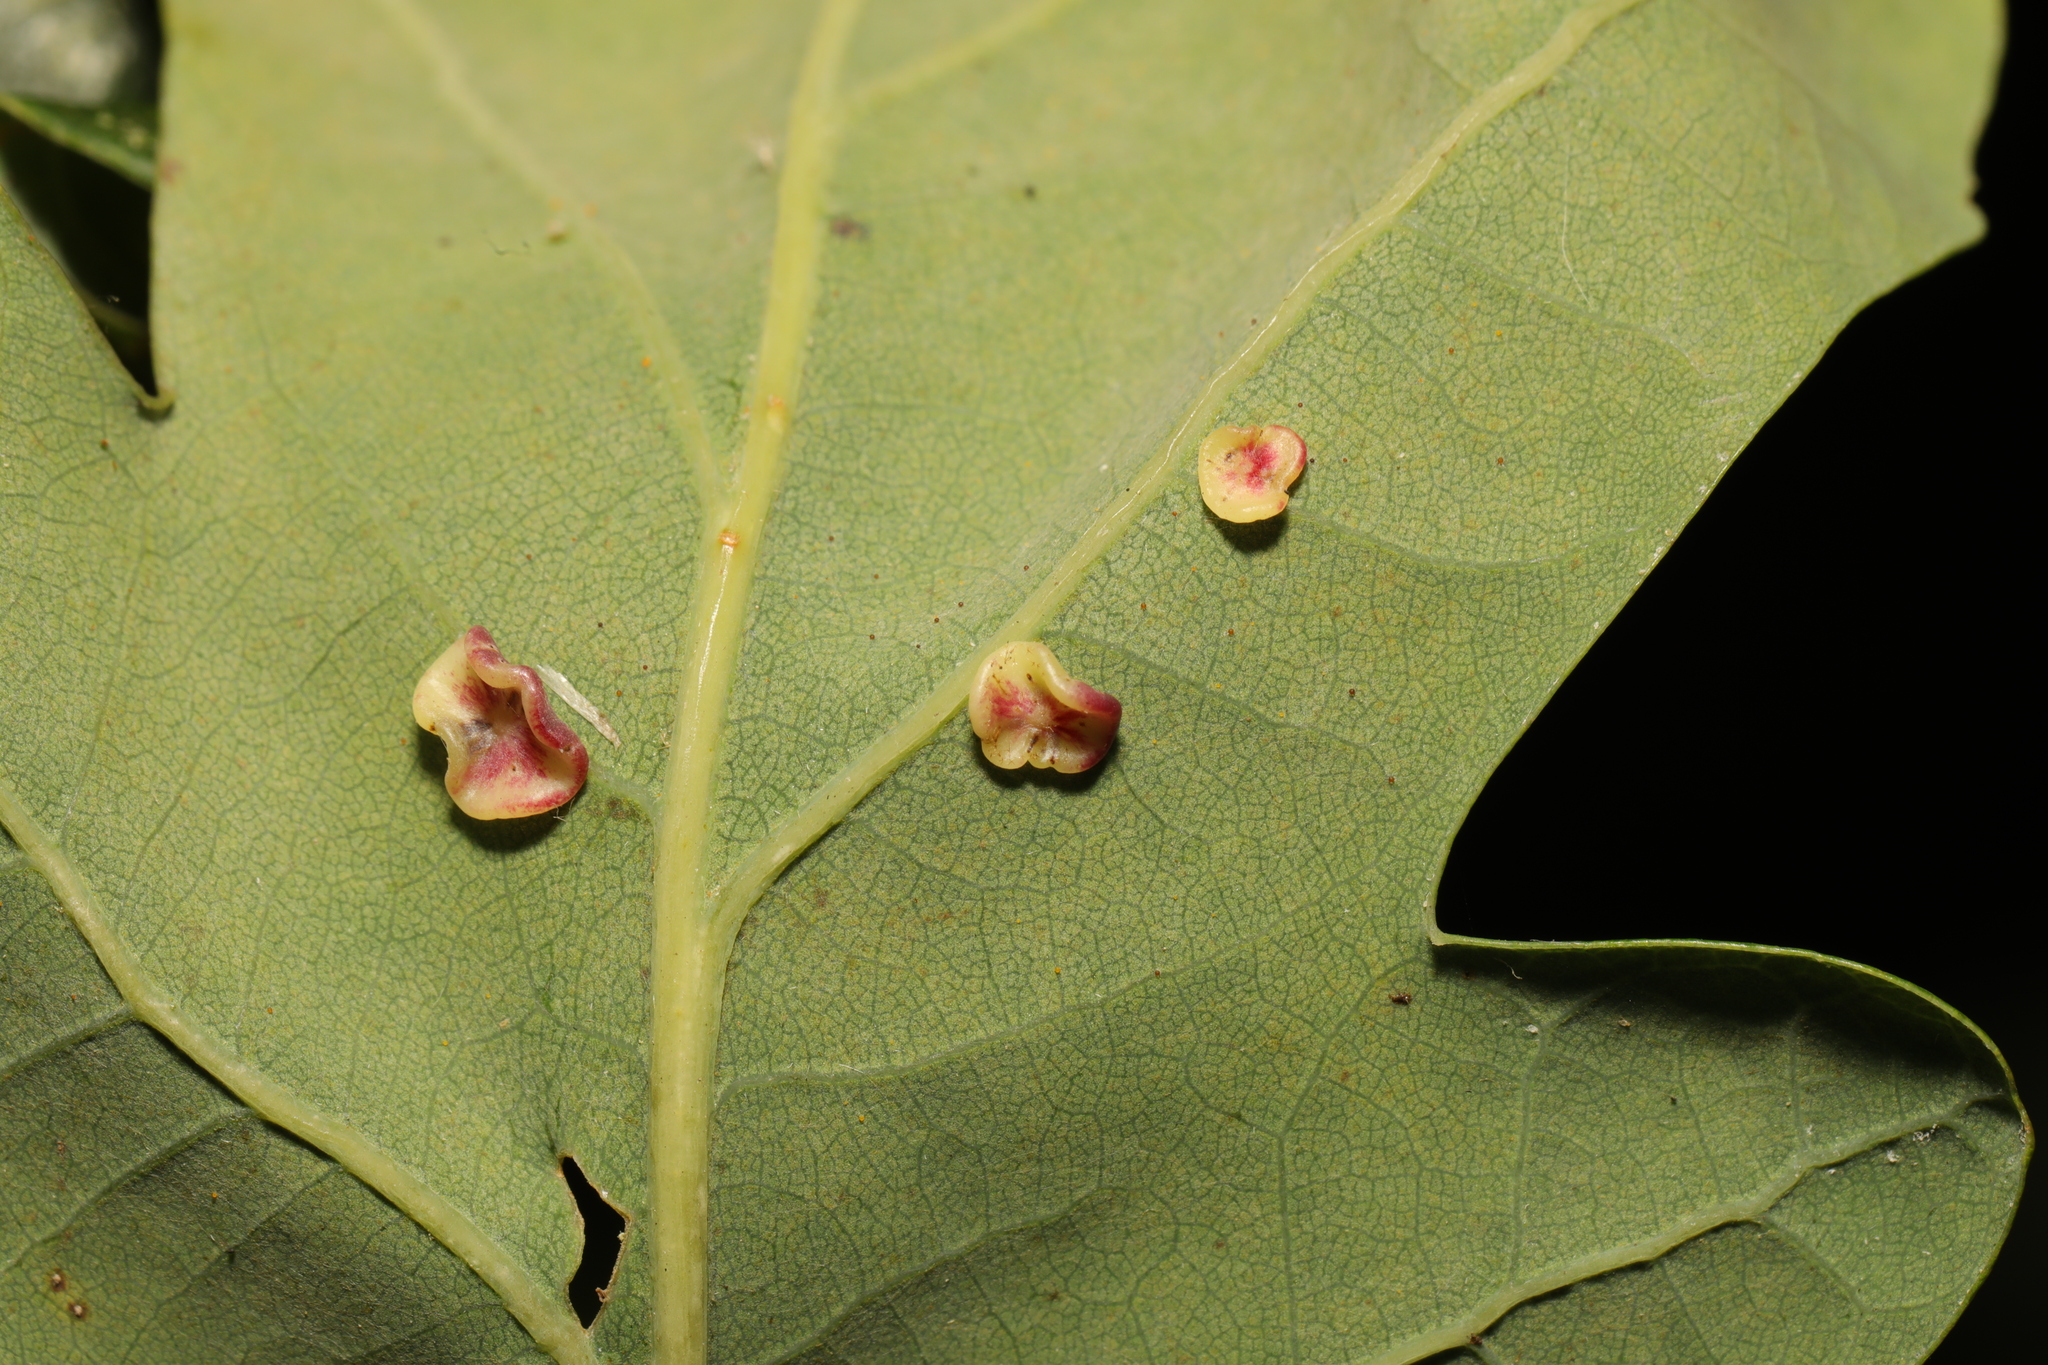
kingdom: Animalia
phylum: Arthropoda
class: Insecta
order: Hymenoptera
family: Cynipidae
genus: Neuroterus
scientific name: Neuroterus albipes
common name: Smooth spangle gall
